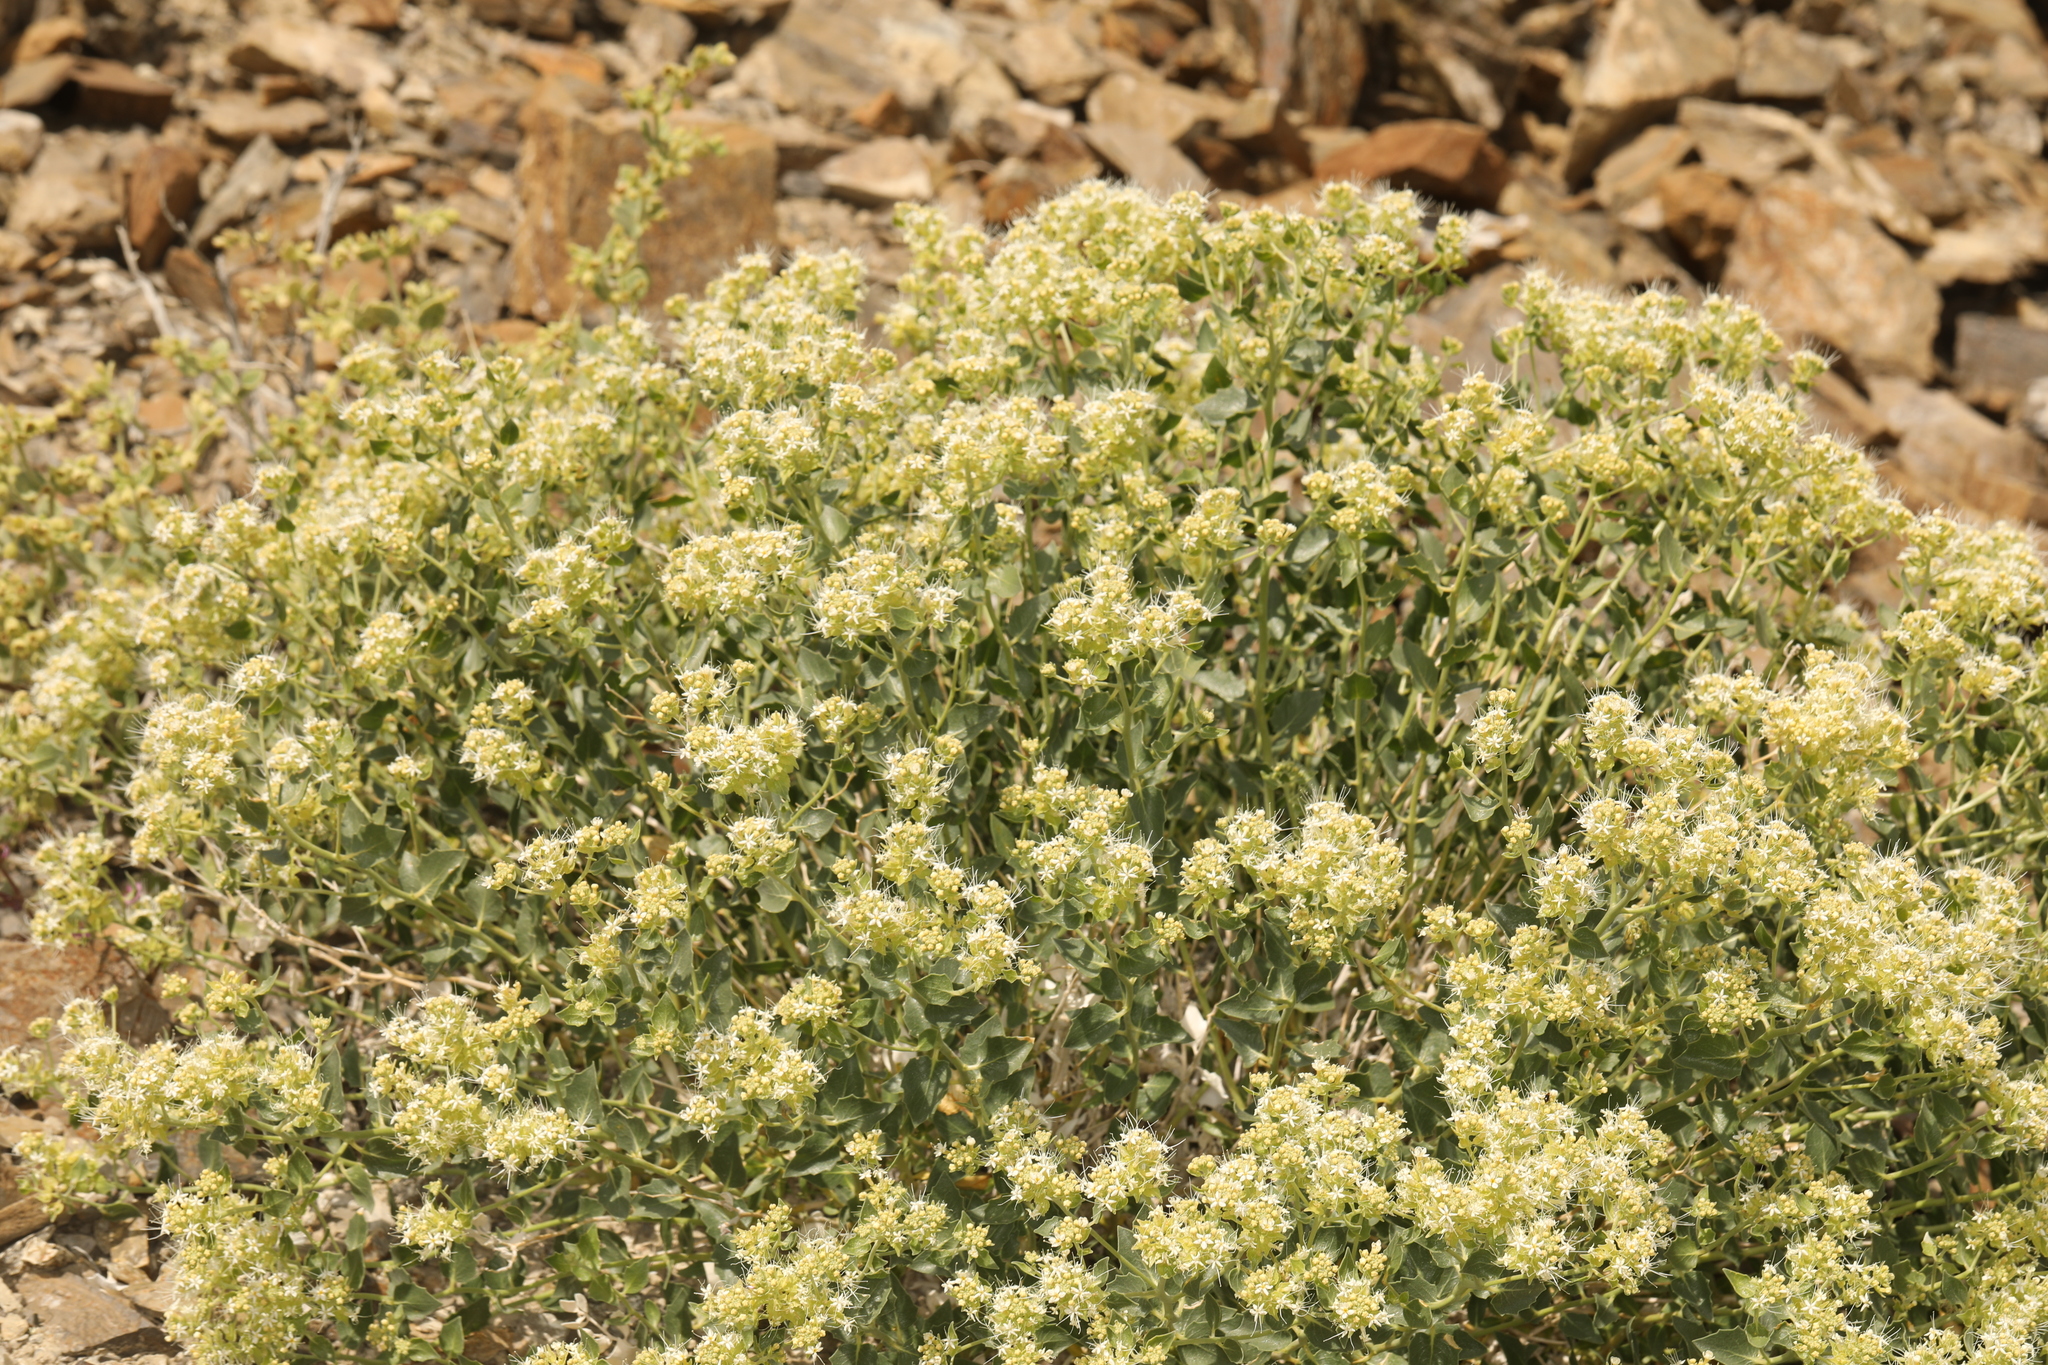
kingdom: Plantae
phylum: Tracheophyta
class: Magnoliopsida
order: Cornales
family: Loasaceae
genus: Petalonyx
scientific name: Petalonyx nitidus
